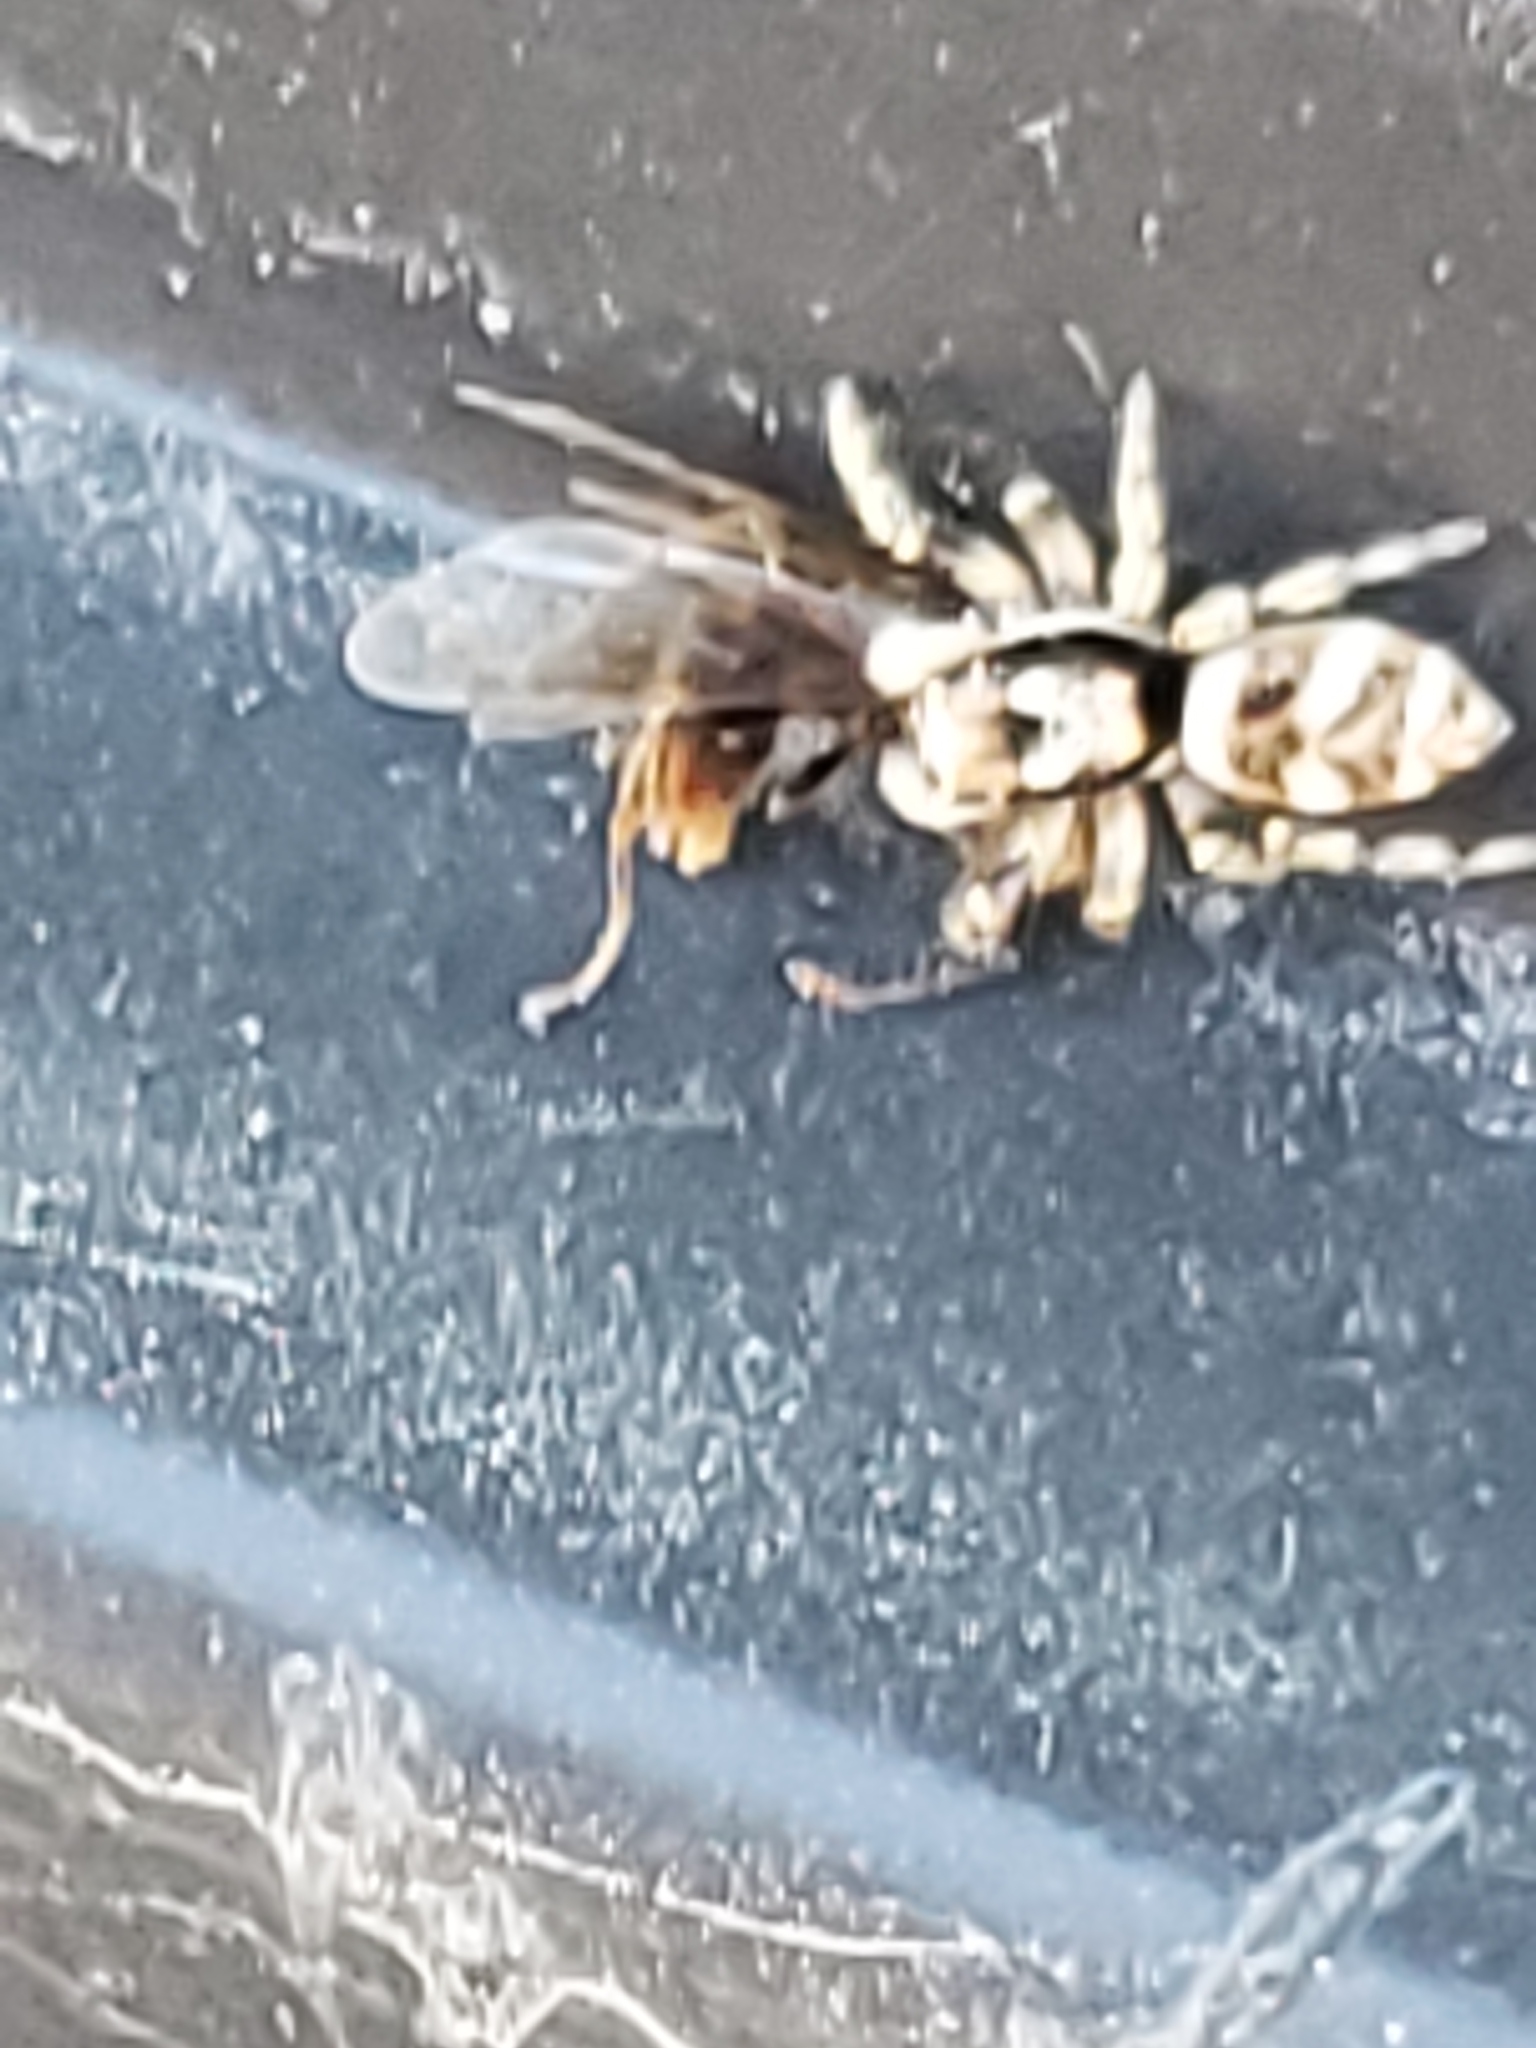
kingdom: Animalia
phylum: Arthropoda
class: Arachnida
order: Araneae
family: Salticidae
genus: Salticus
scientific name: Salticus scenicus
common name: Zebra jumper
